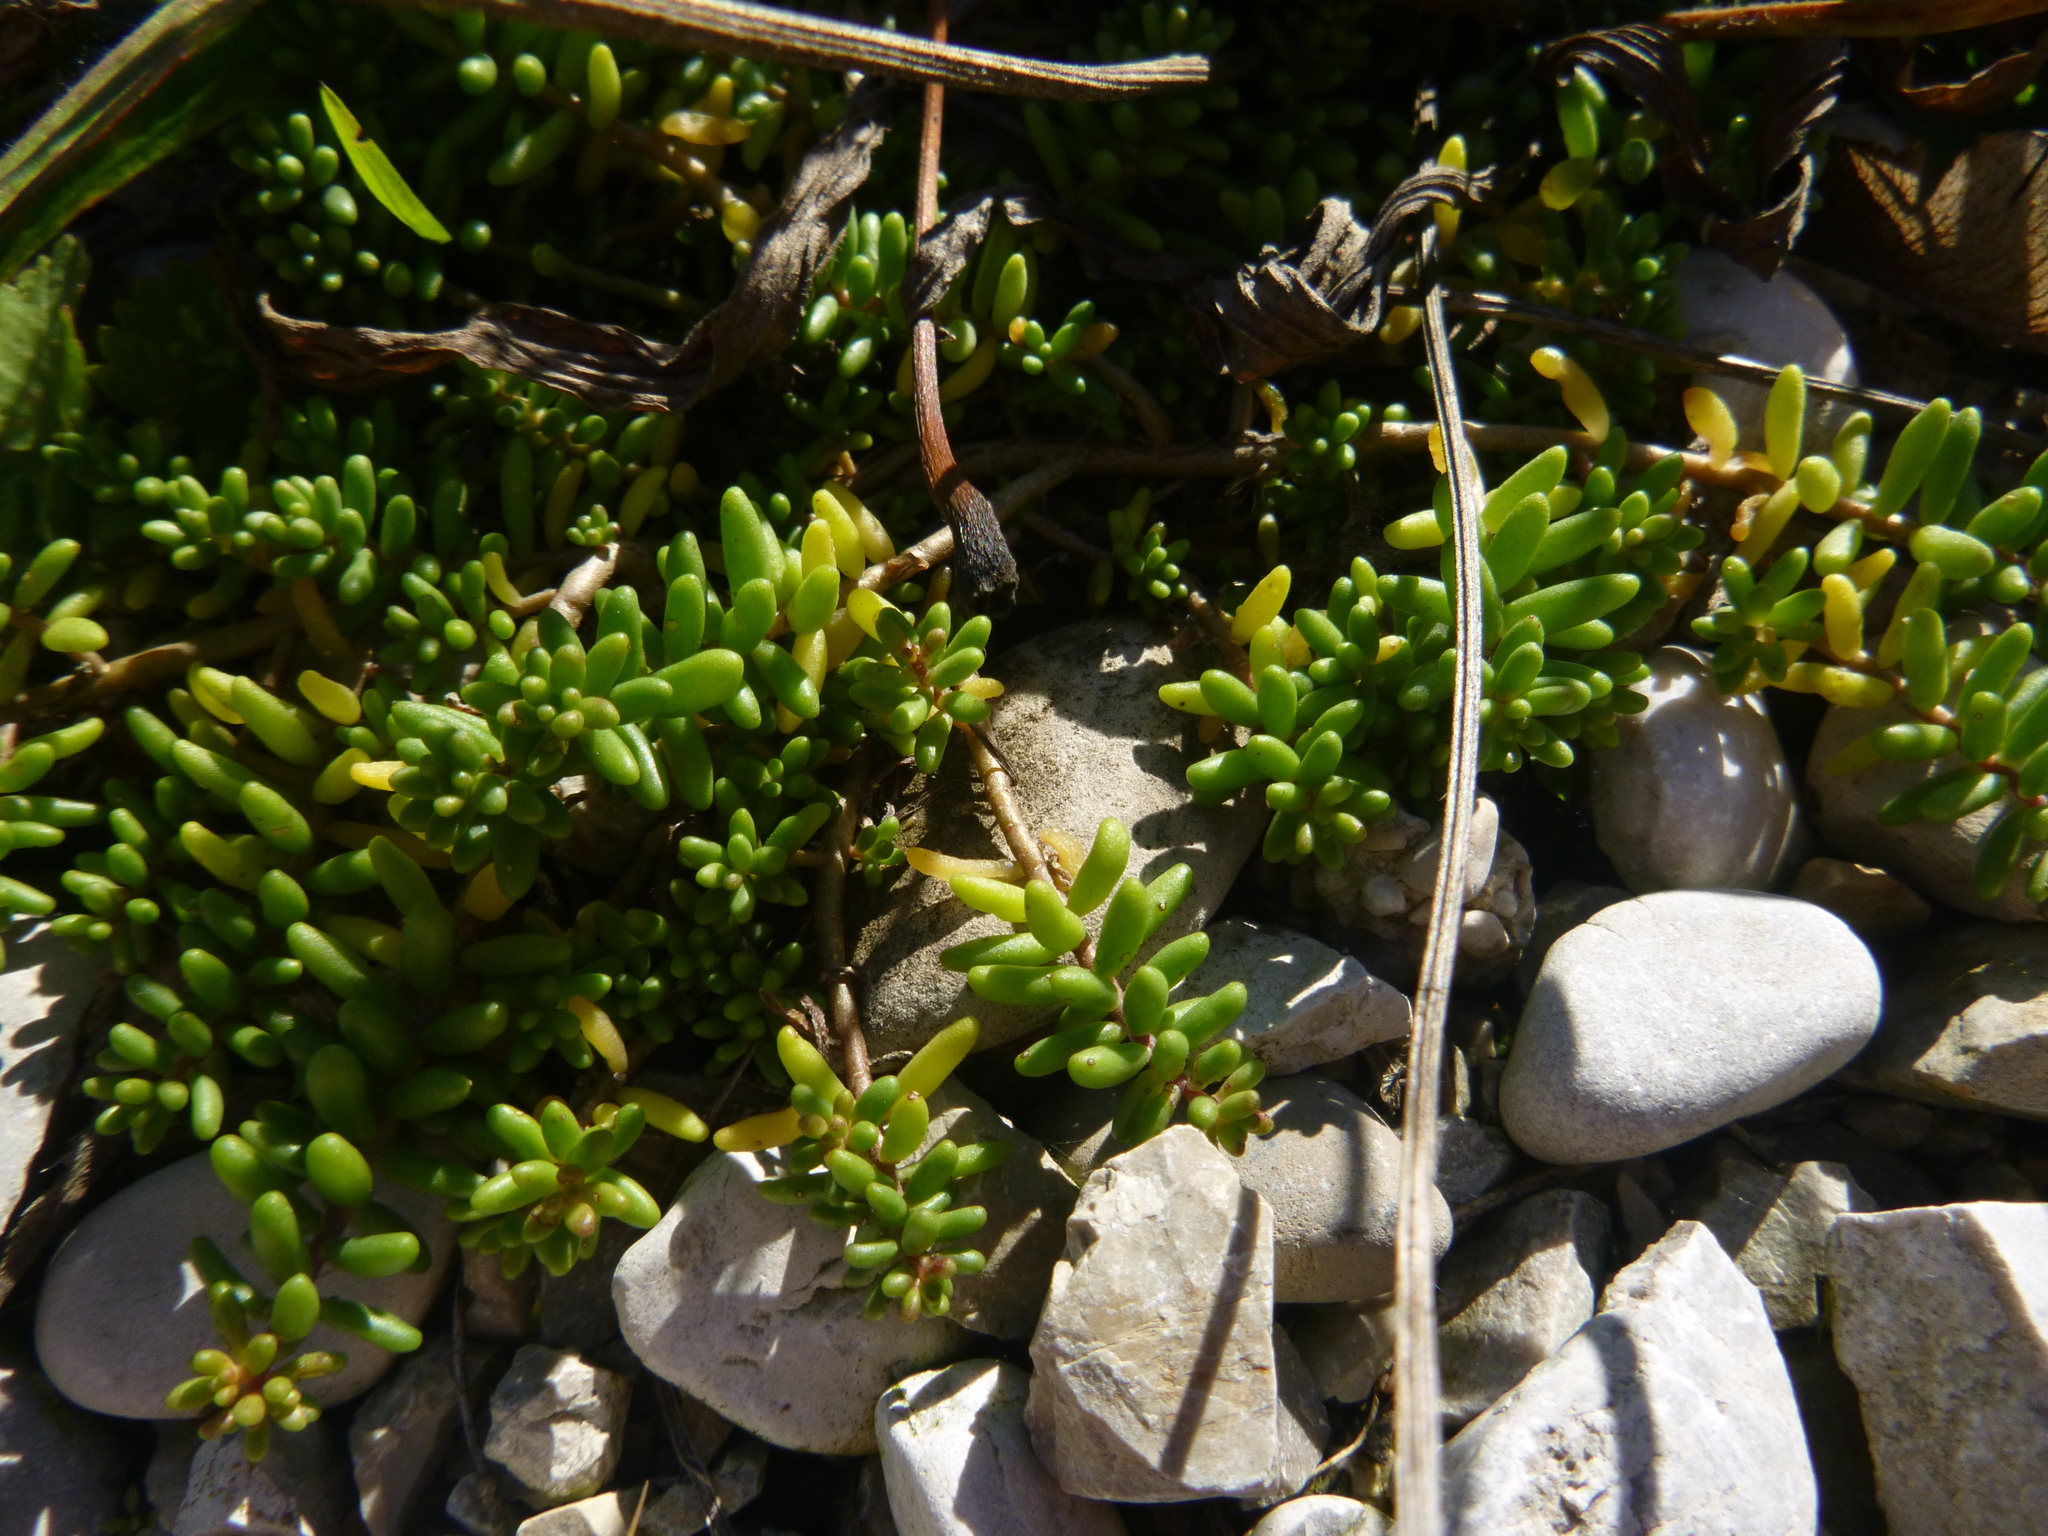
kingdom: Plantae
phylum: Tracheophyta
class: Magnoliopsida
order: Saxifragales
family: Crassulaceae
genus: Sedum
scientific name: Sedum album
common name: White stonecrop
